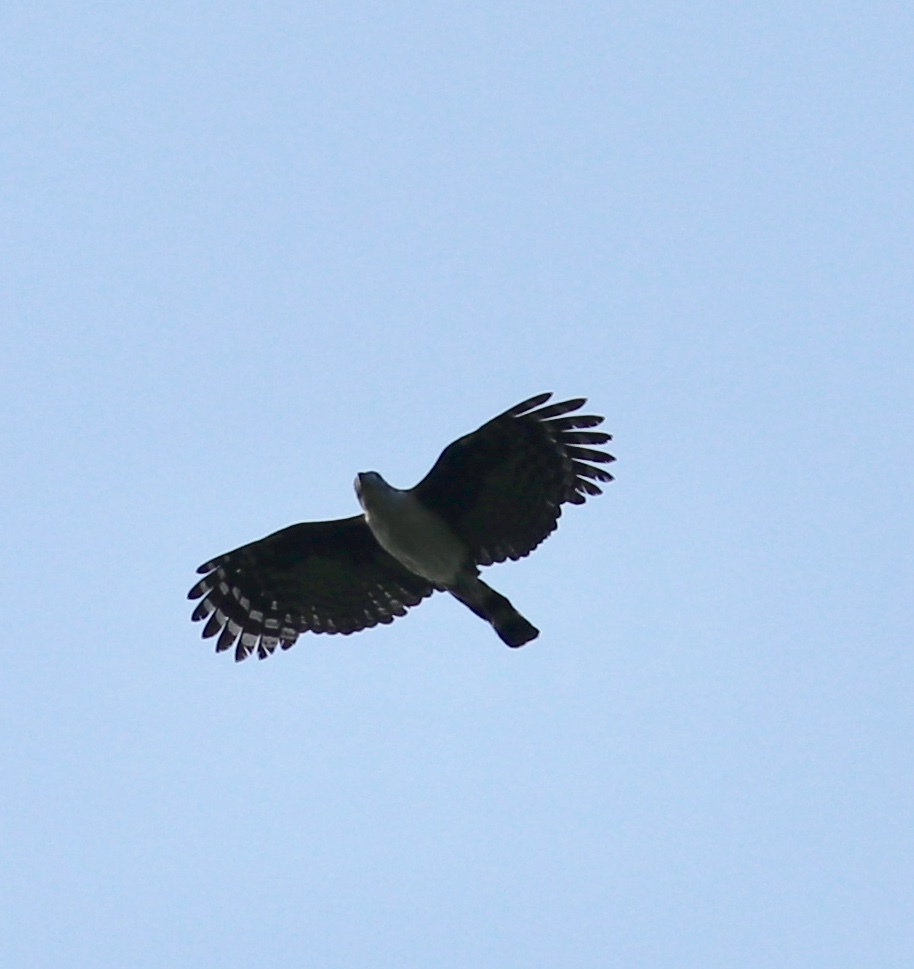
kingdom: Animalia
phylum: Chordata
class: Aves
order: Accipitriformes
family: Accipitridae
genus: Leptodon
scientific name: Leptodon cayanensis
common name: Gray-headed kite
